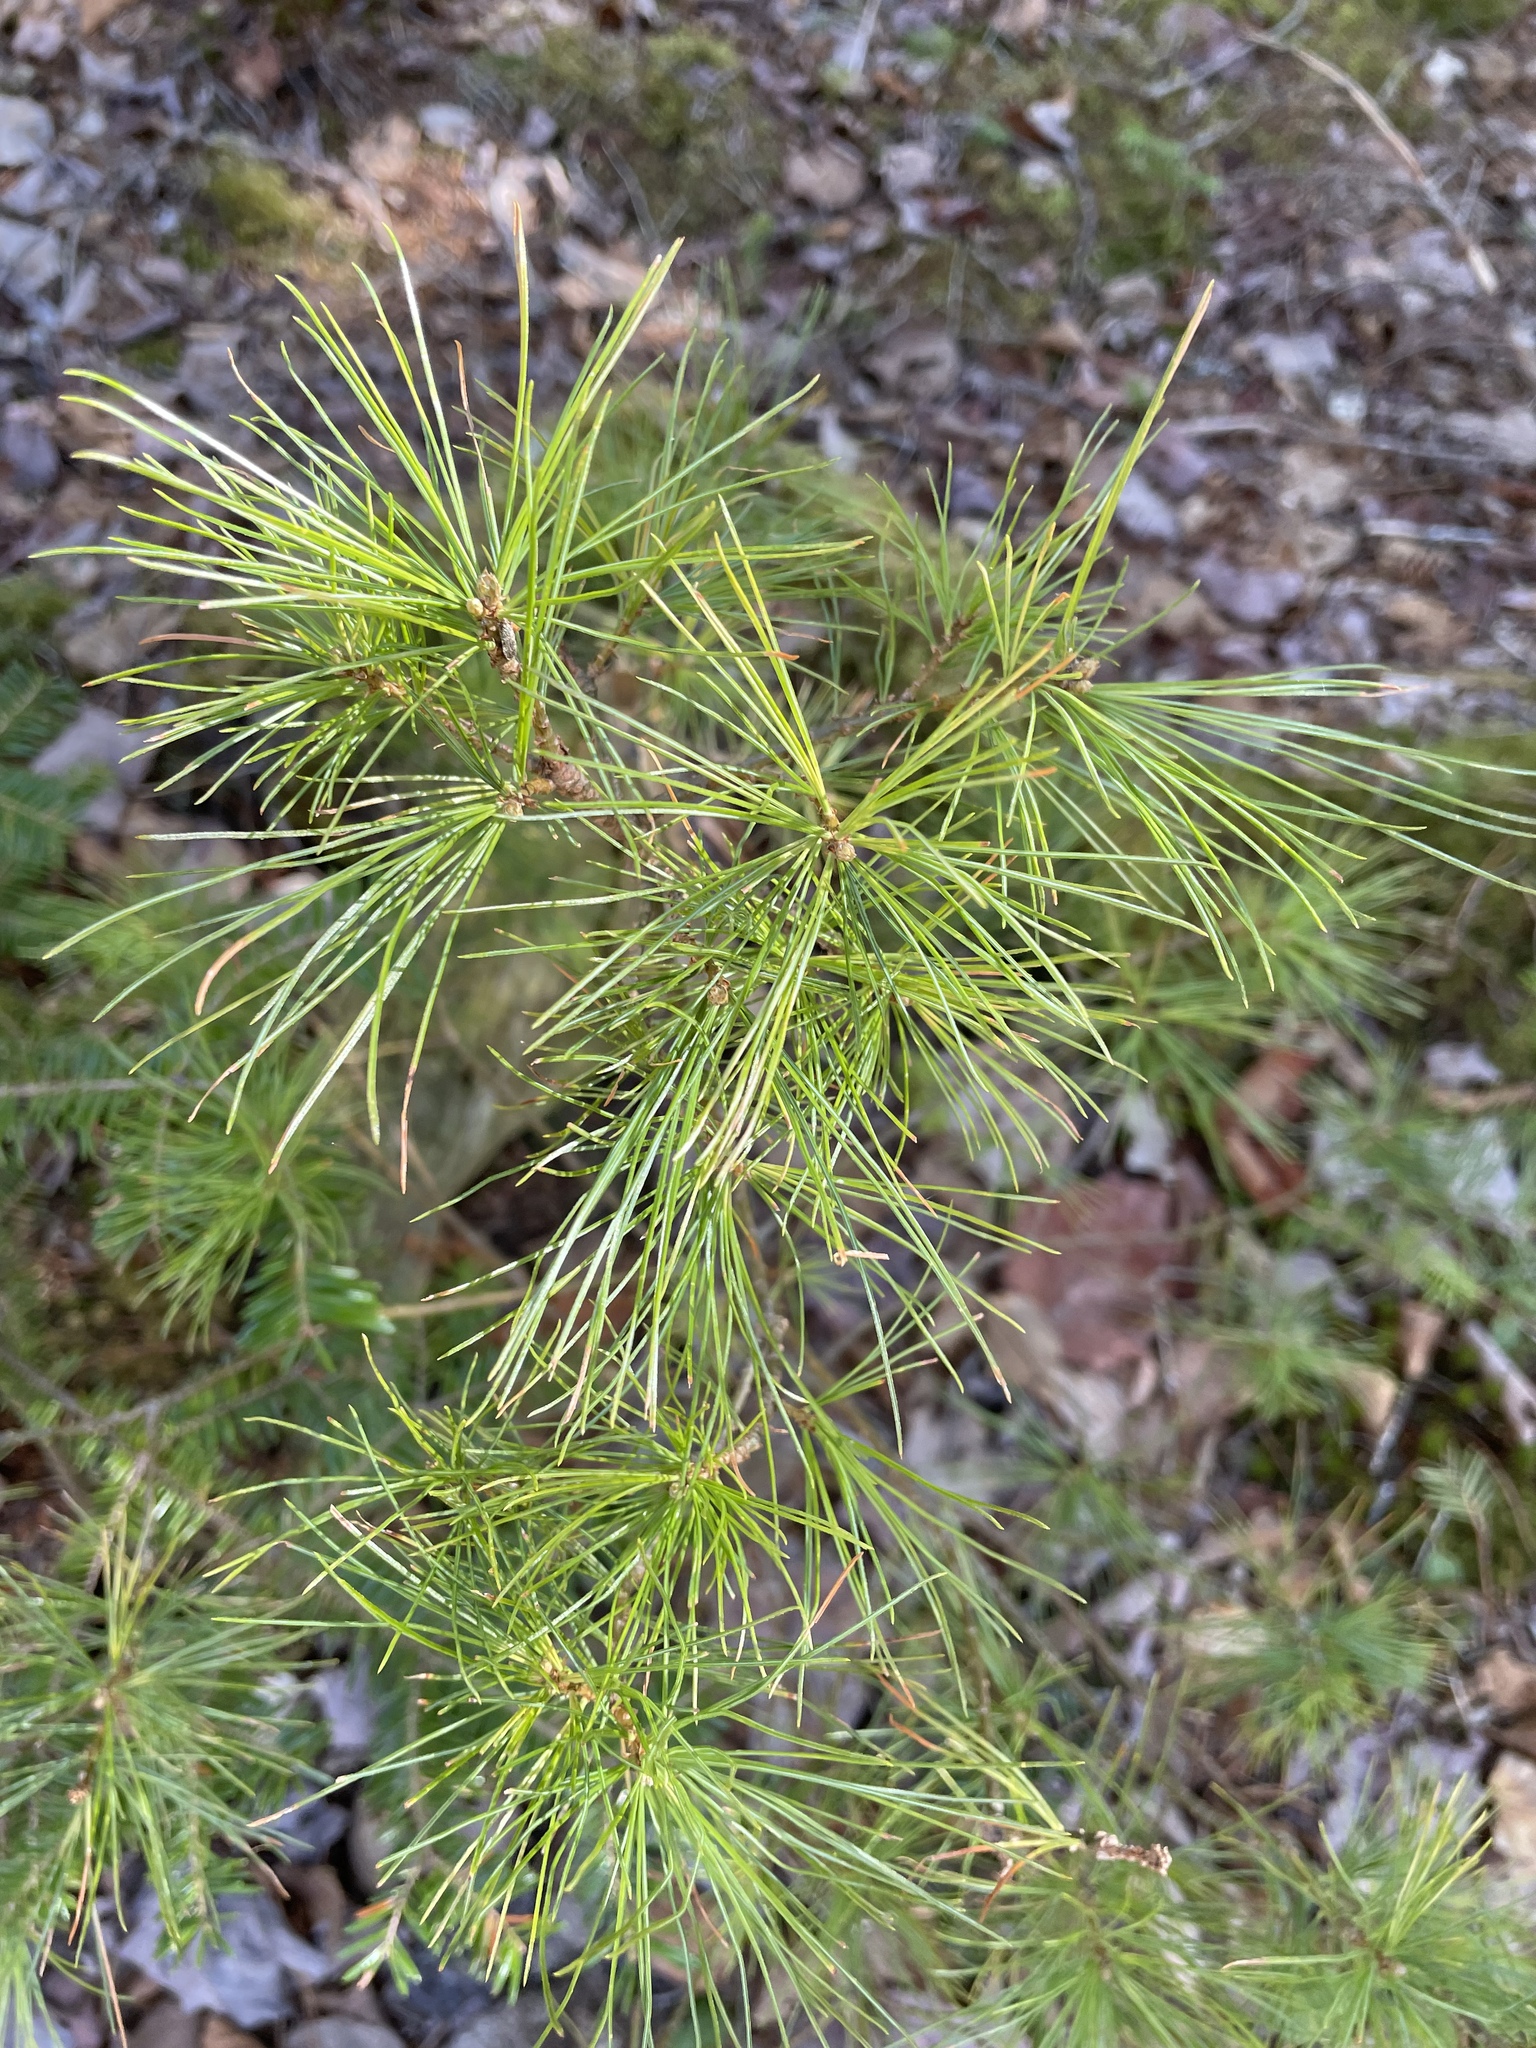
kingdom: Plantae
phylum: Tracheophyta
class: Pinopsida
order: Pinales
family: Pinaceae
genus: Pinus
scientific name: Pinus strobus
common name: Weymouth pine
